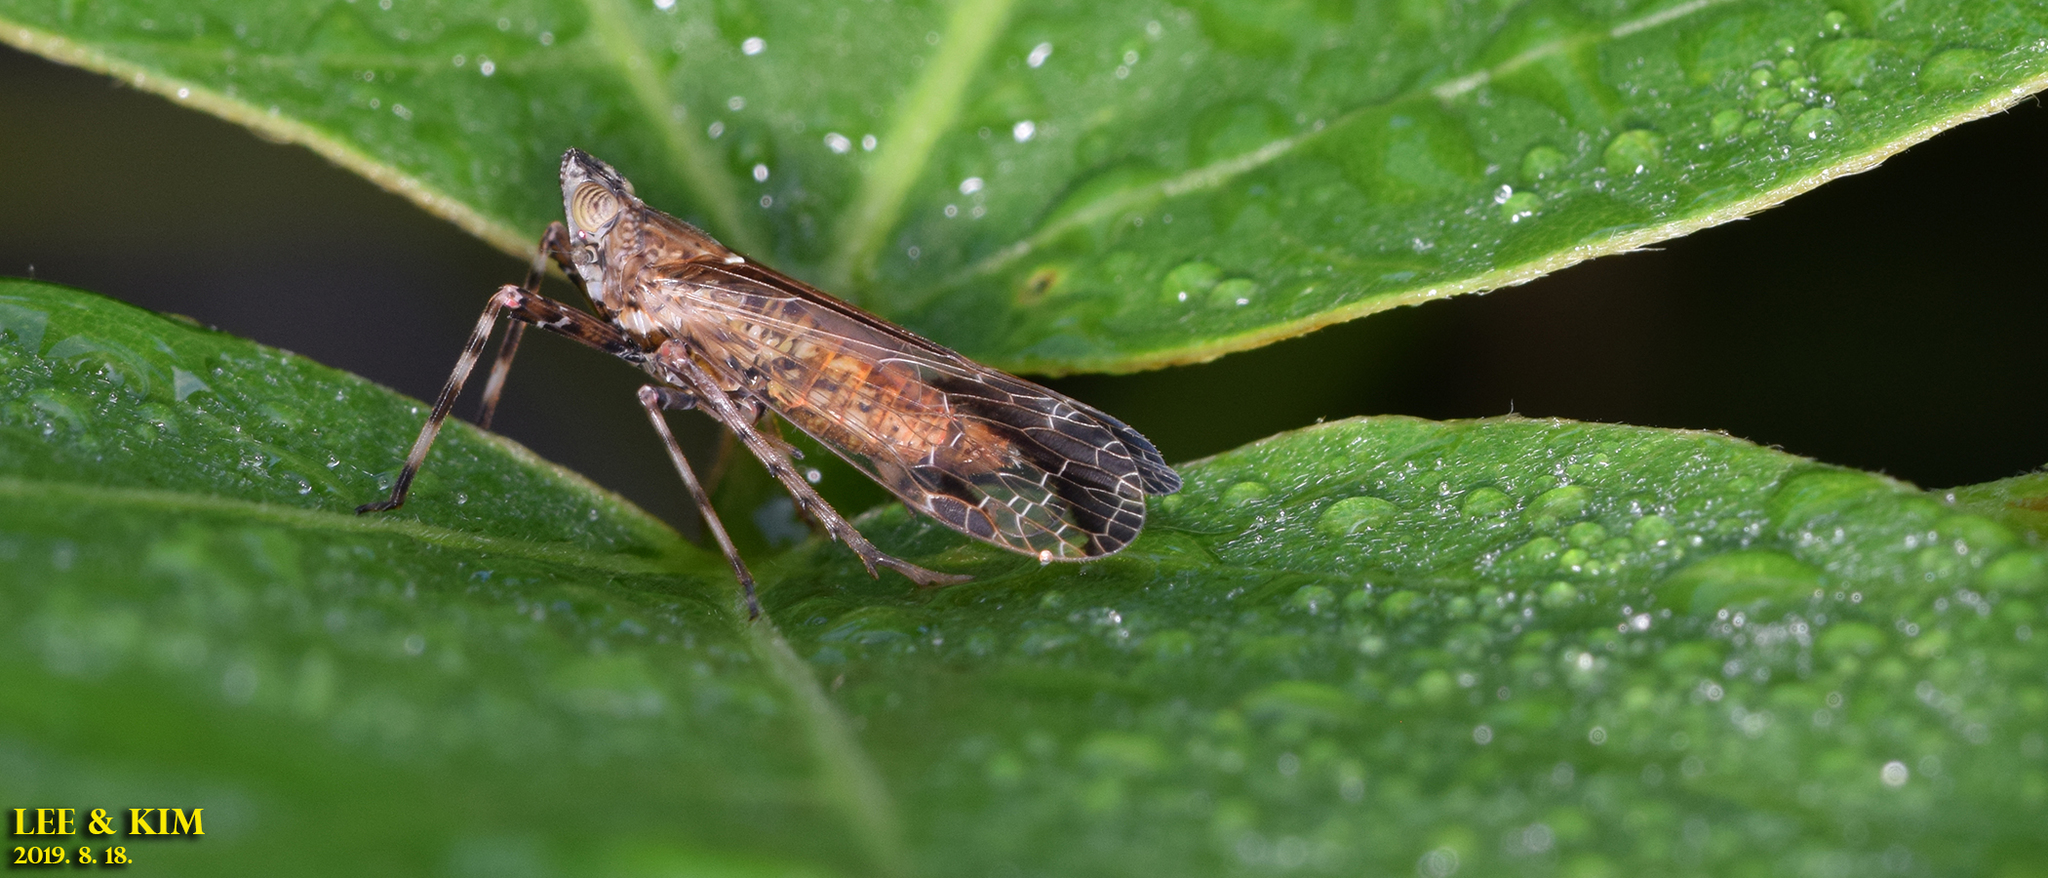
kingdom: Animalia
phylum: Arthropoda
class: Insecta
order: Hemiptera
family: Dictyopharidae
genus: Orthopagus
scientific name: Orthopagus lunulifer
